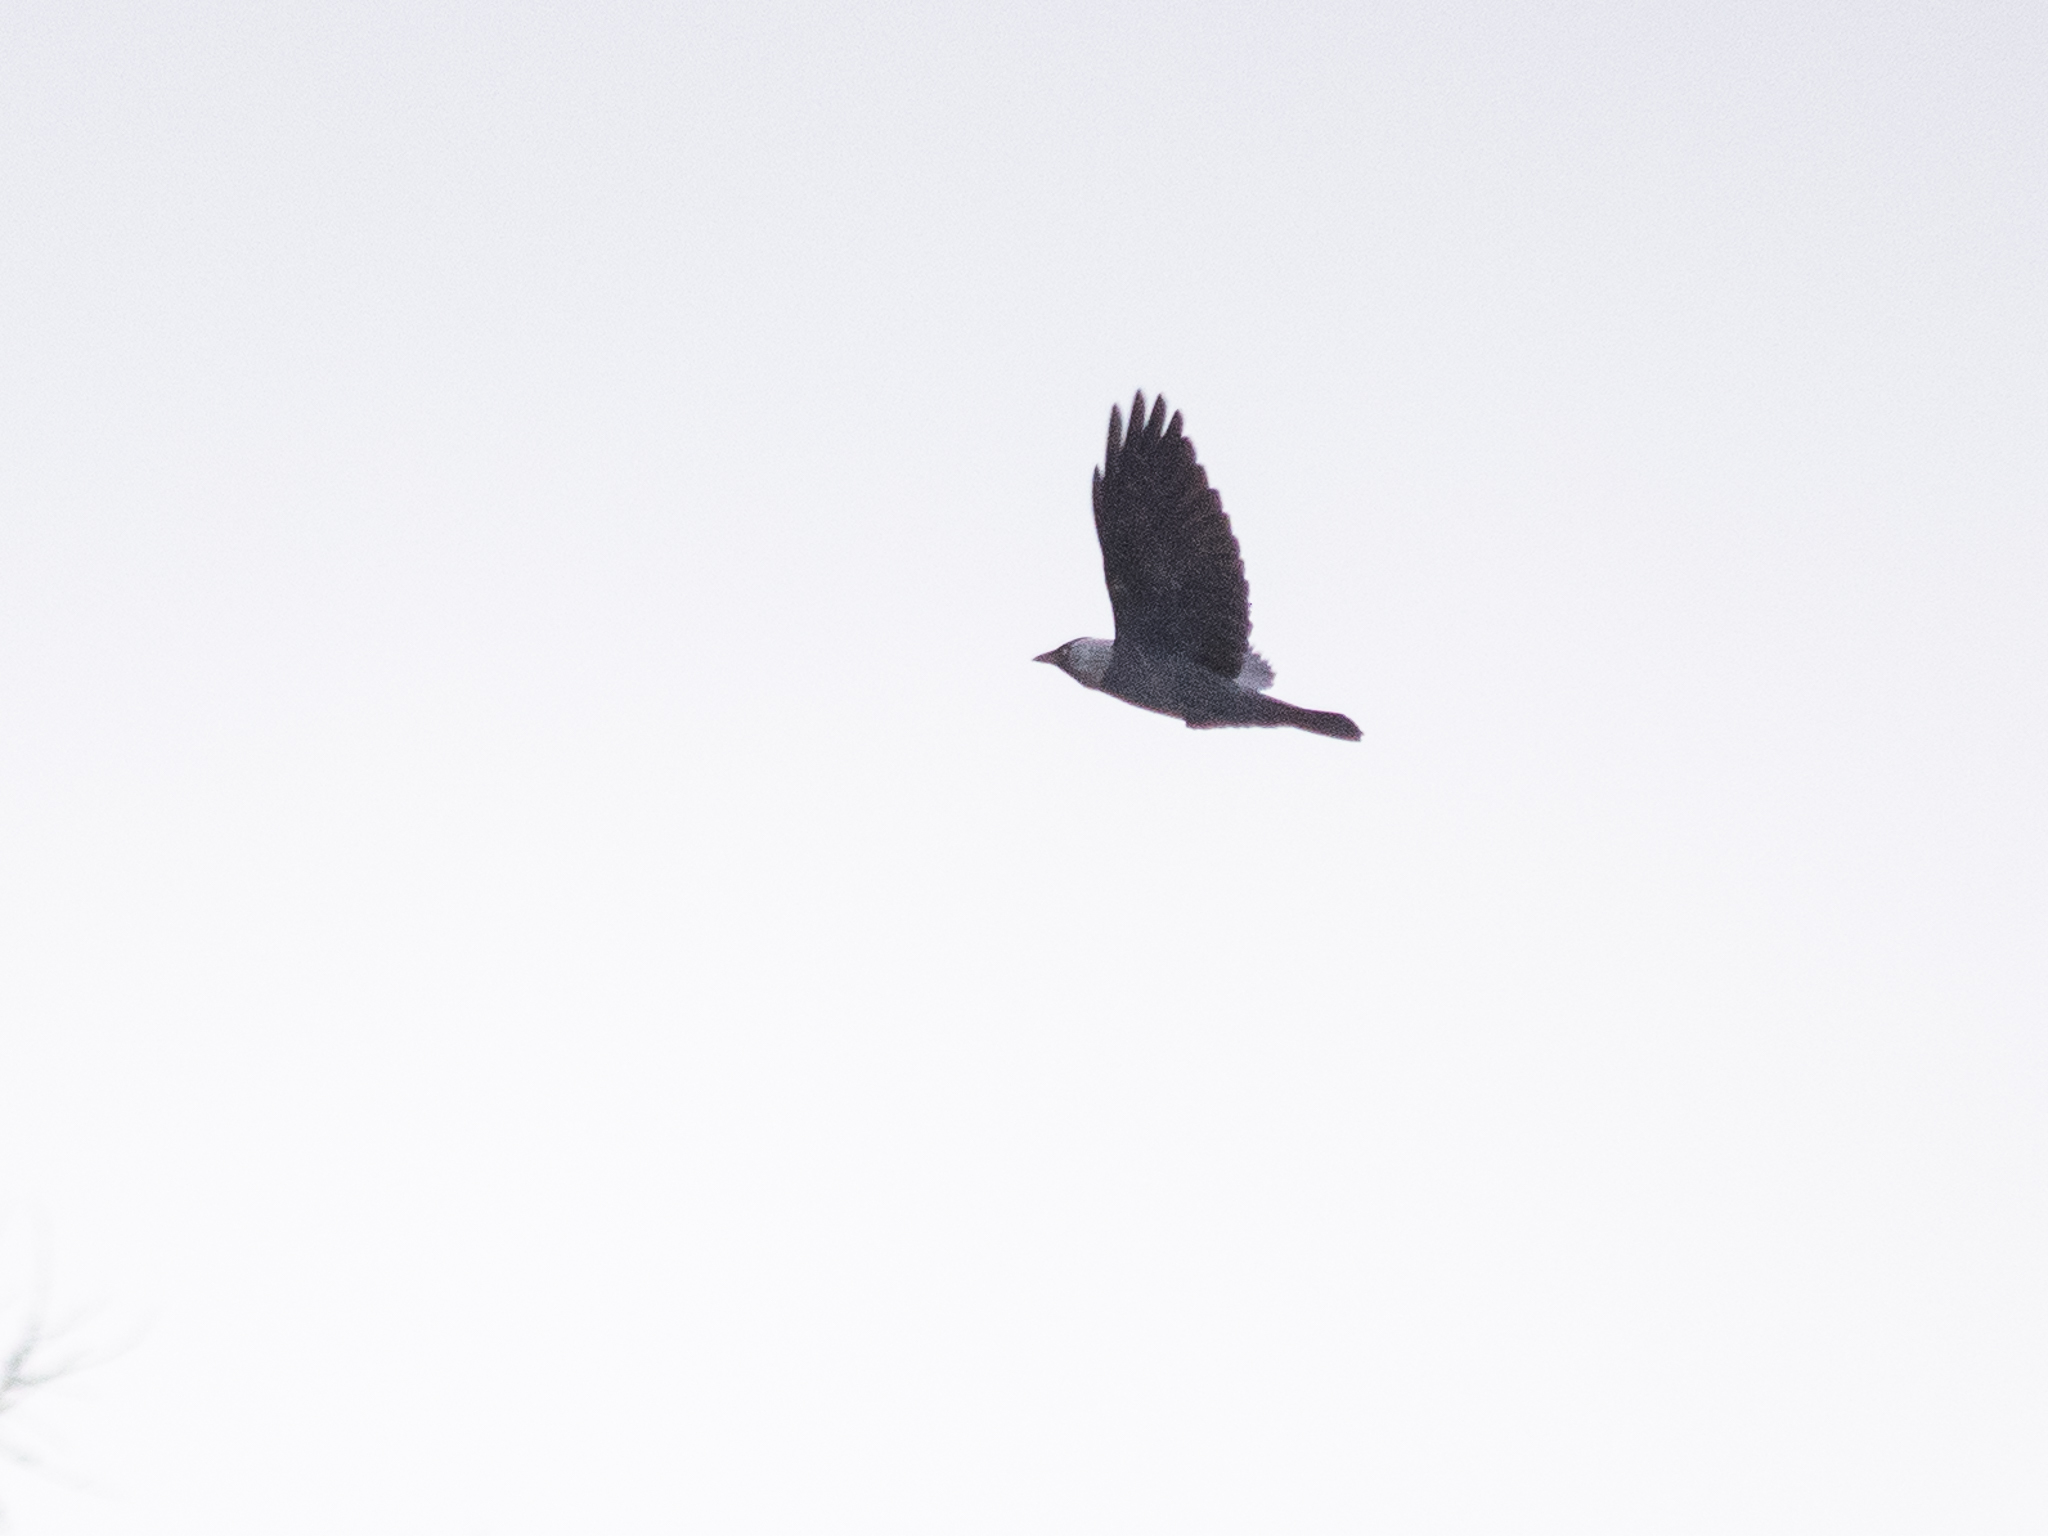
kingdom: Animalia
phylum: Chordata
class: Aves
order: Passeriformes
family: Corvidae
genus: Coloeus
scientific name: Coloeus monedula
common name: Western jackdaw
